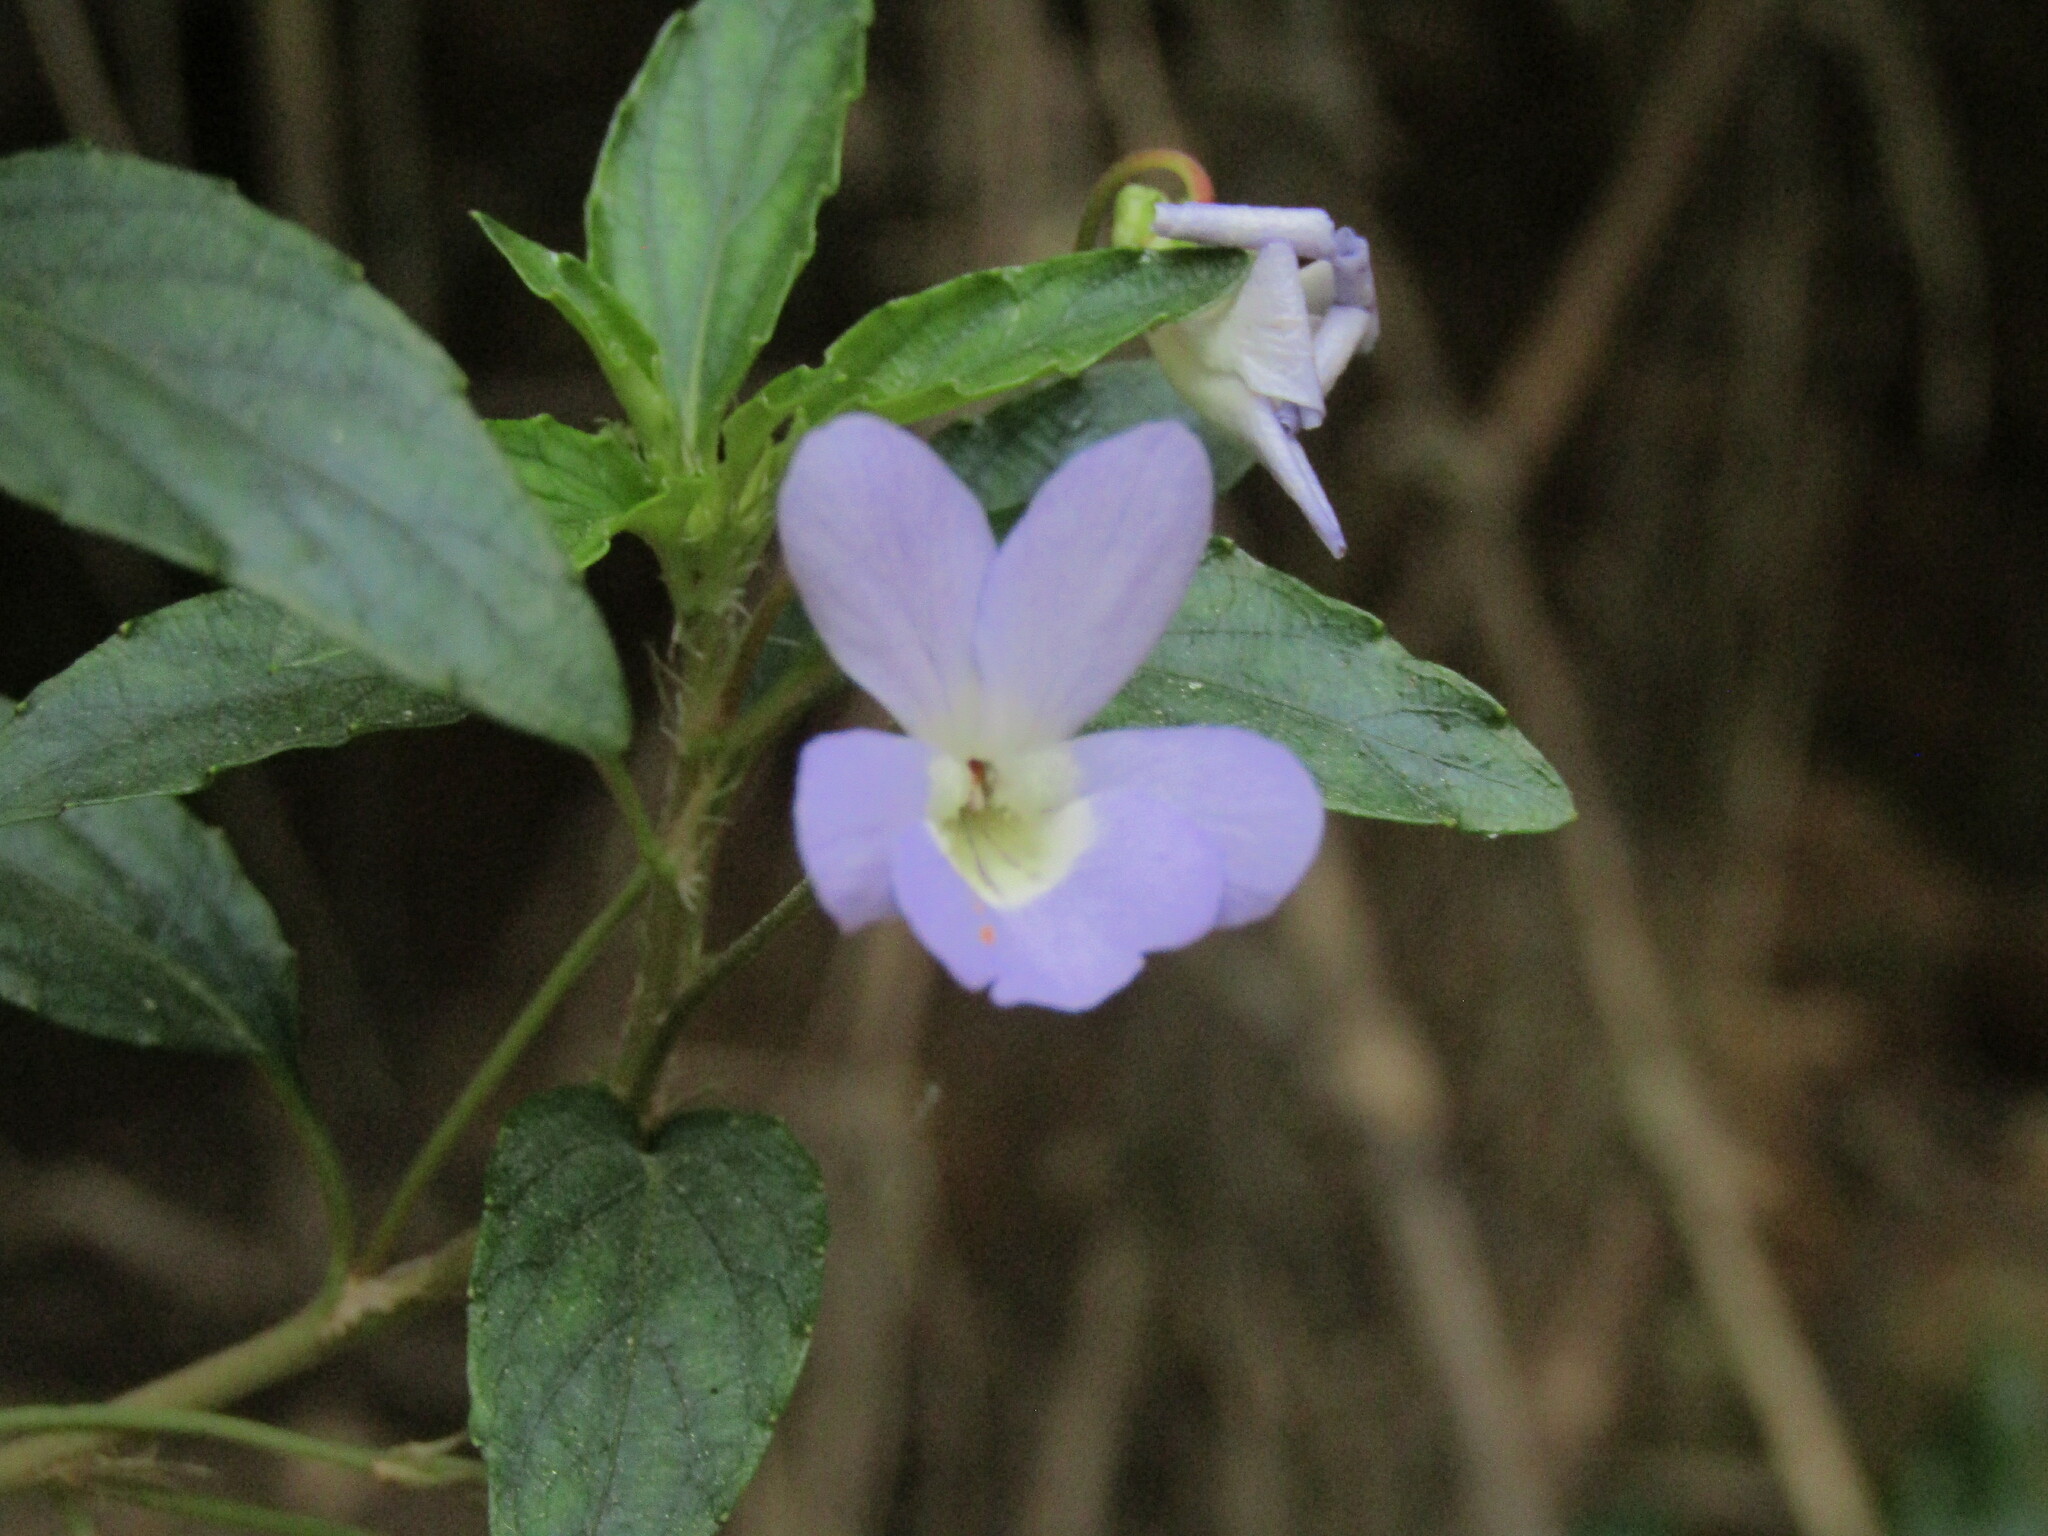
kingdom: Plantae
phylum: Tracheophyta
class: Magnoliopsida
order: Malpighiales
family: Violaceae
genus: Viola
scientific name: Viola portalesia
